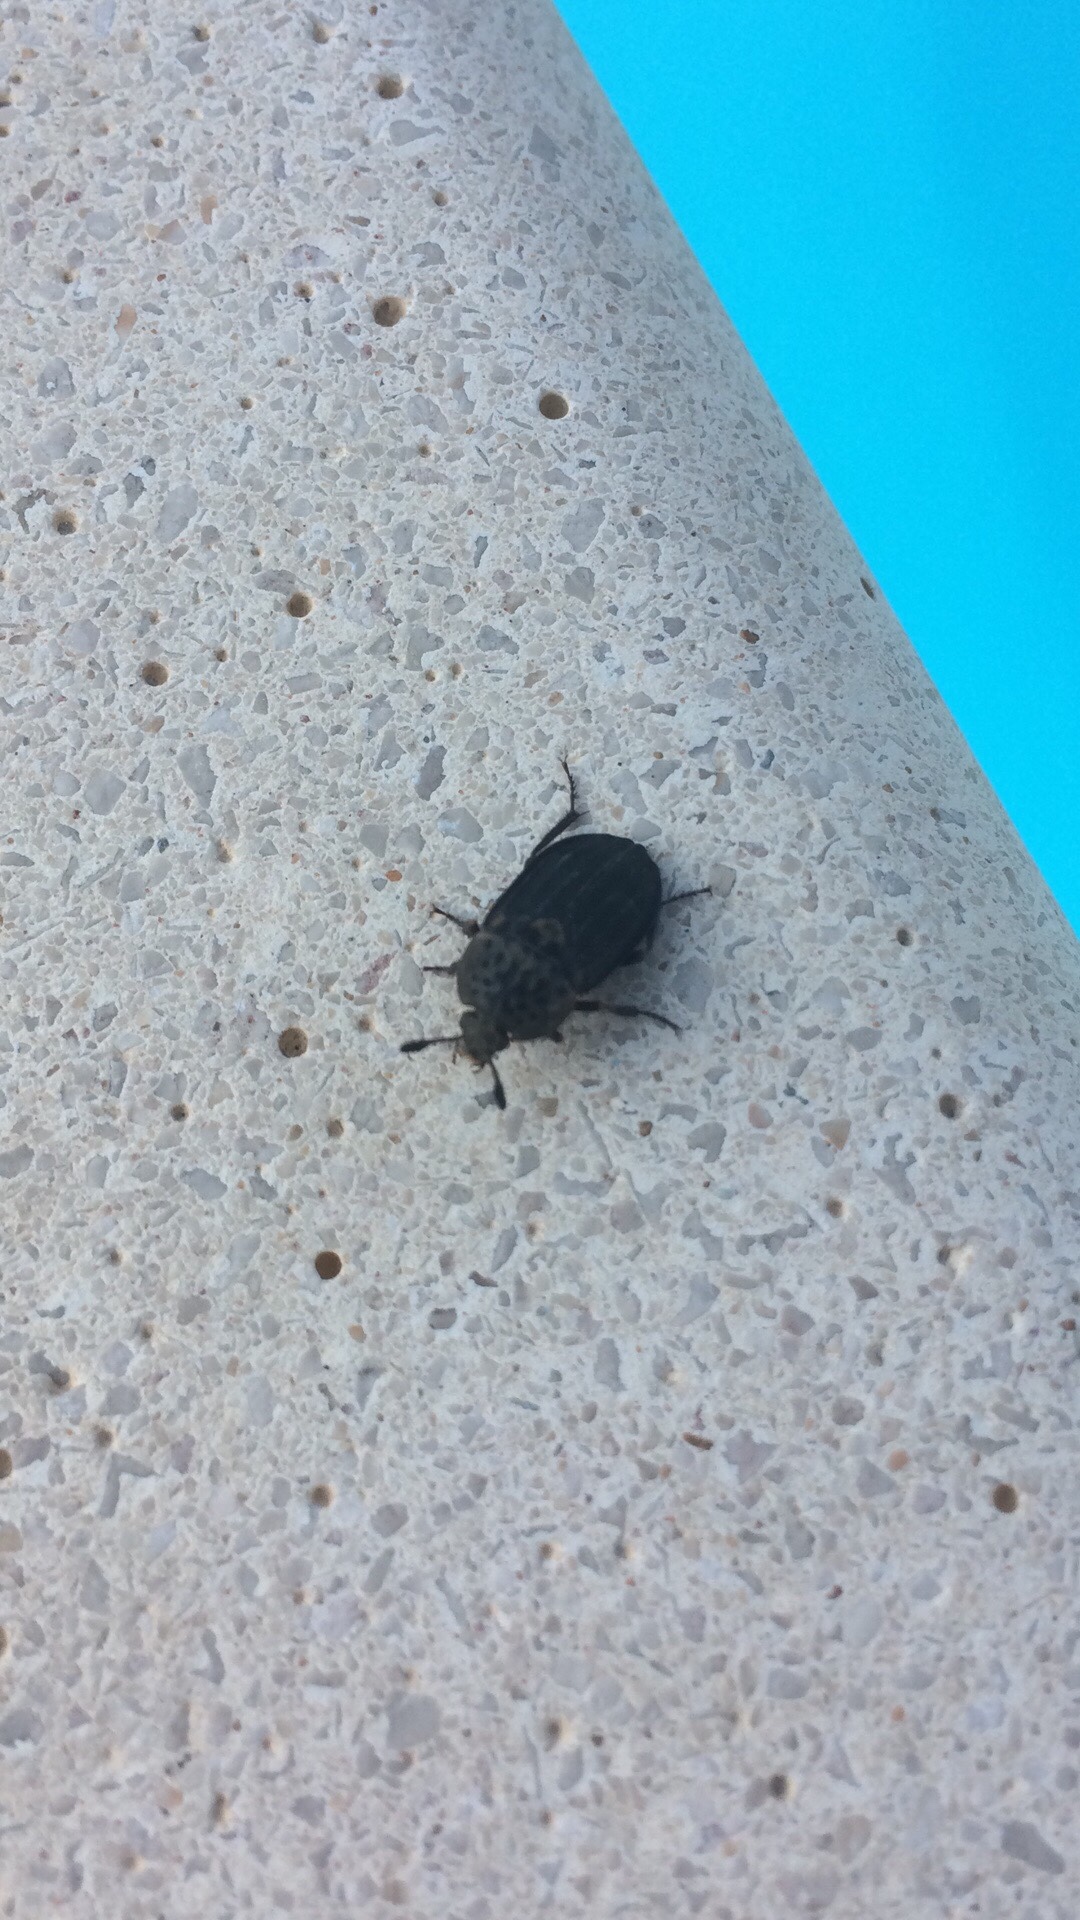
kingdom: Animalia
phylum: Arthropoda
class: Insecta
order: Coleoptera
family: Staphylinidae
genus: Thanatophilus
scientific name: Thanatophilus sinuatus
